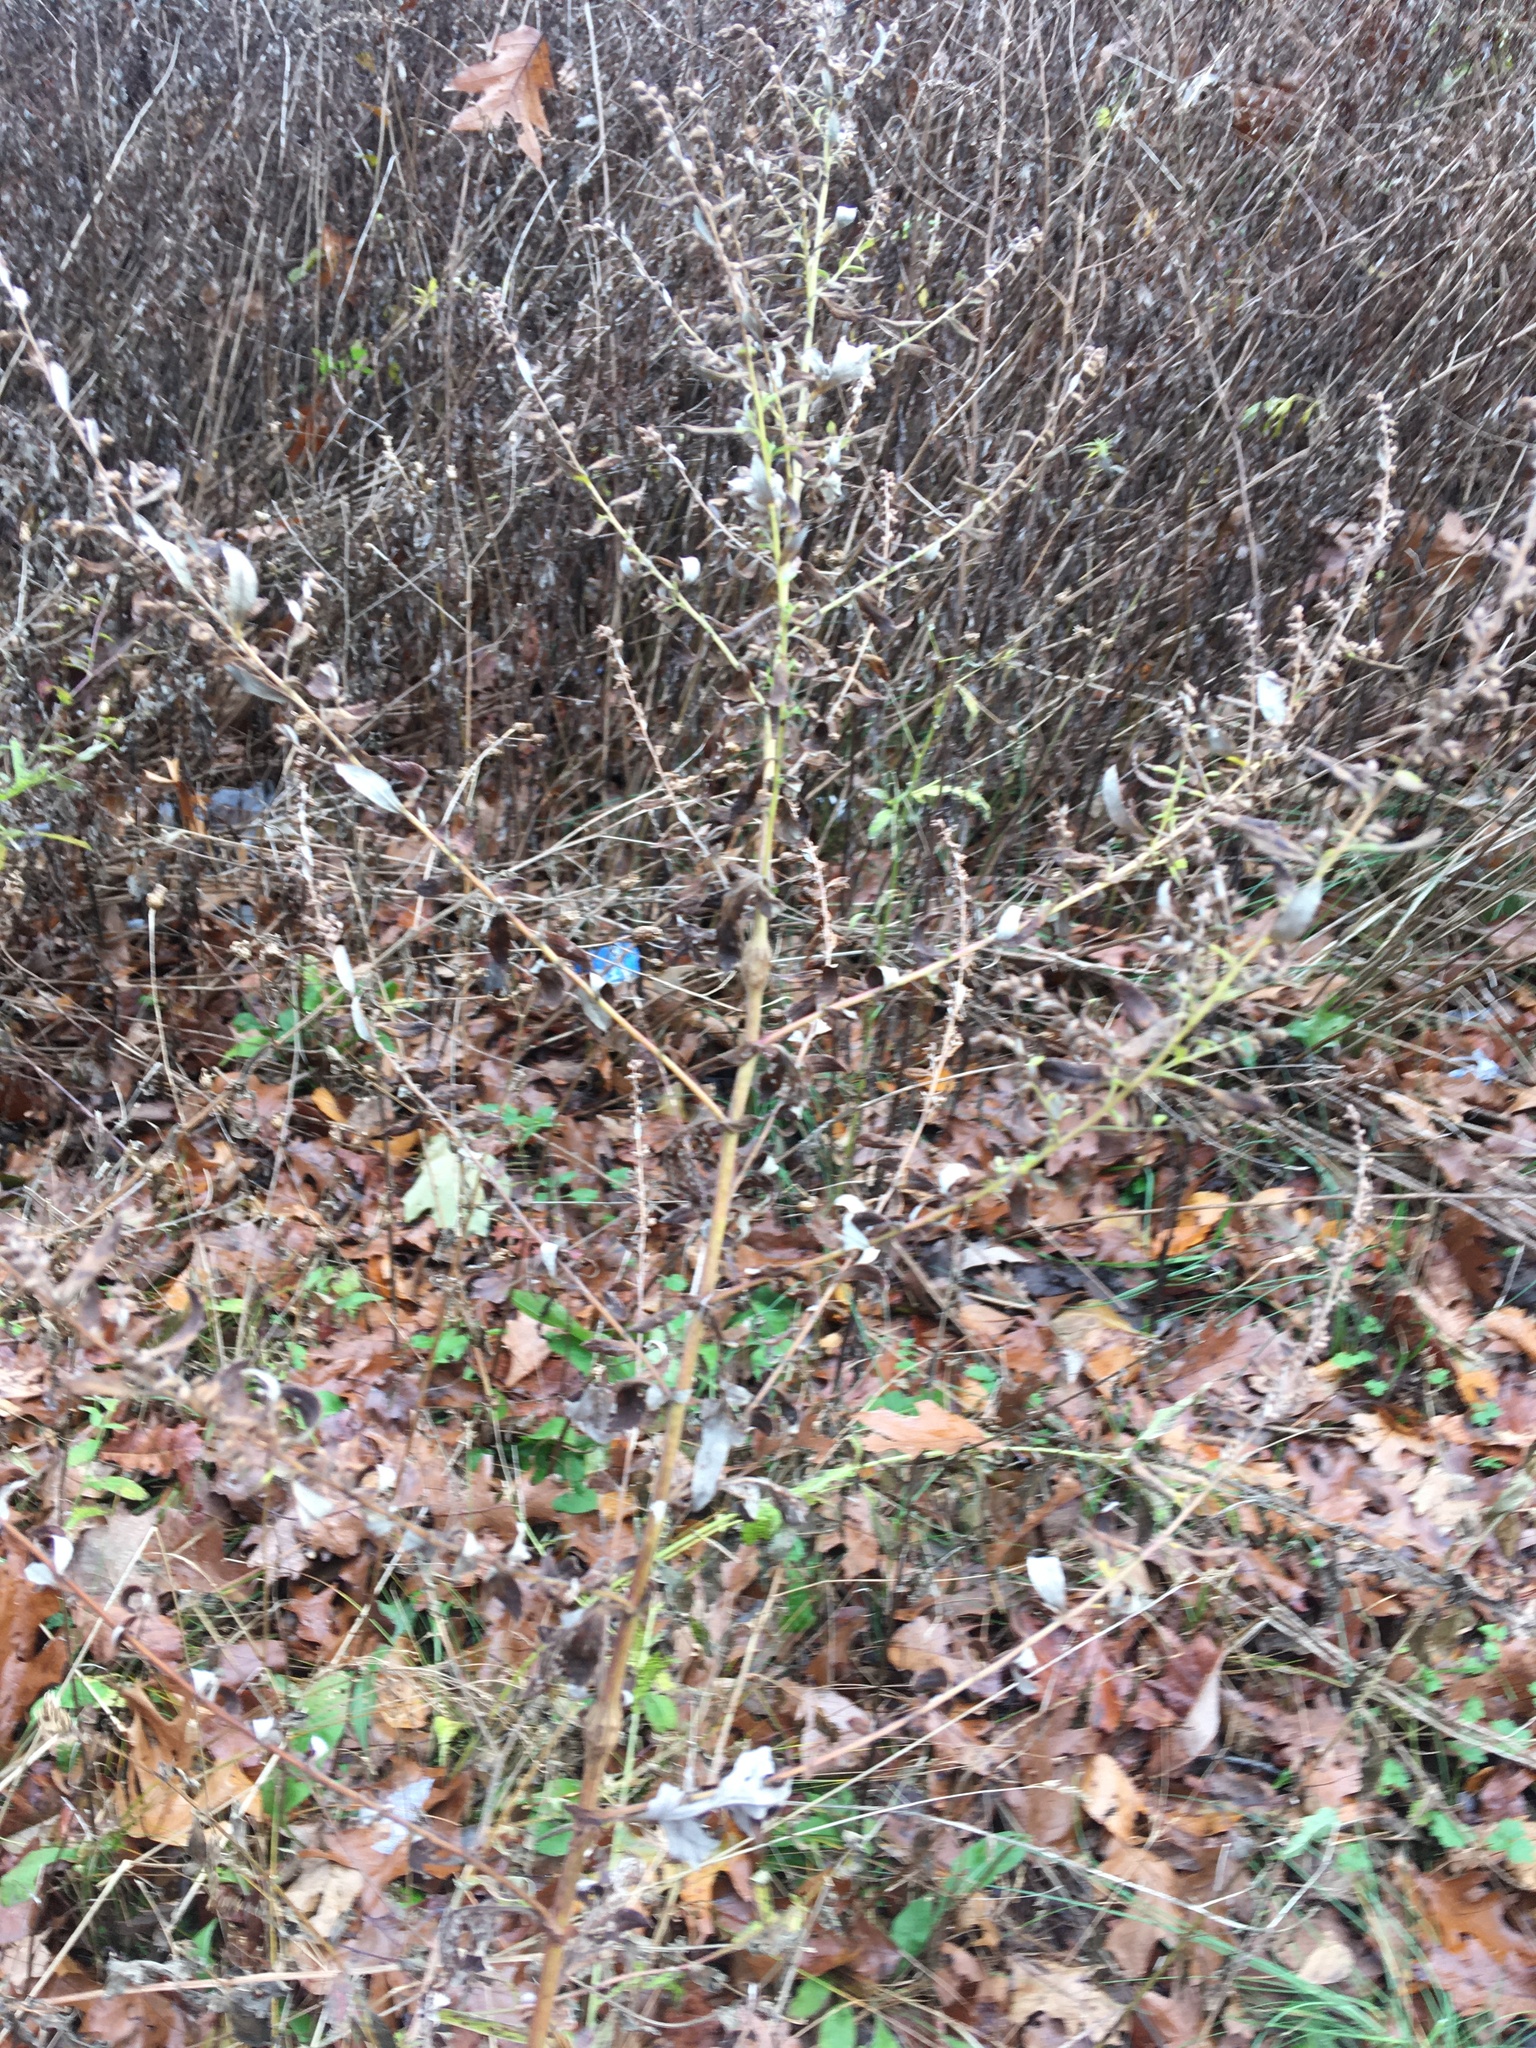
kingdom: Plantae
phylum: Tracheophyta
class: Magnoliopsida
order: Asterales
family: Asteraceae
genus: Artemisia
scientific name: Artemisia vulgaris
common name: Mugwort
